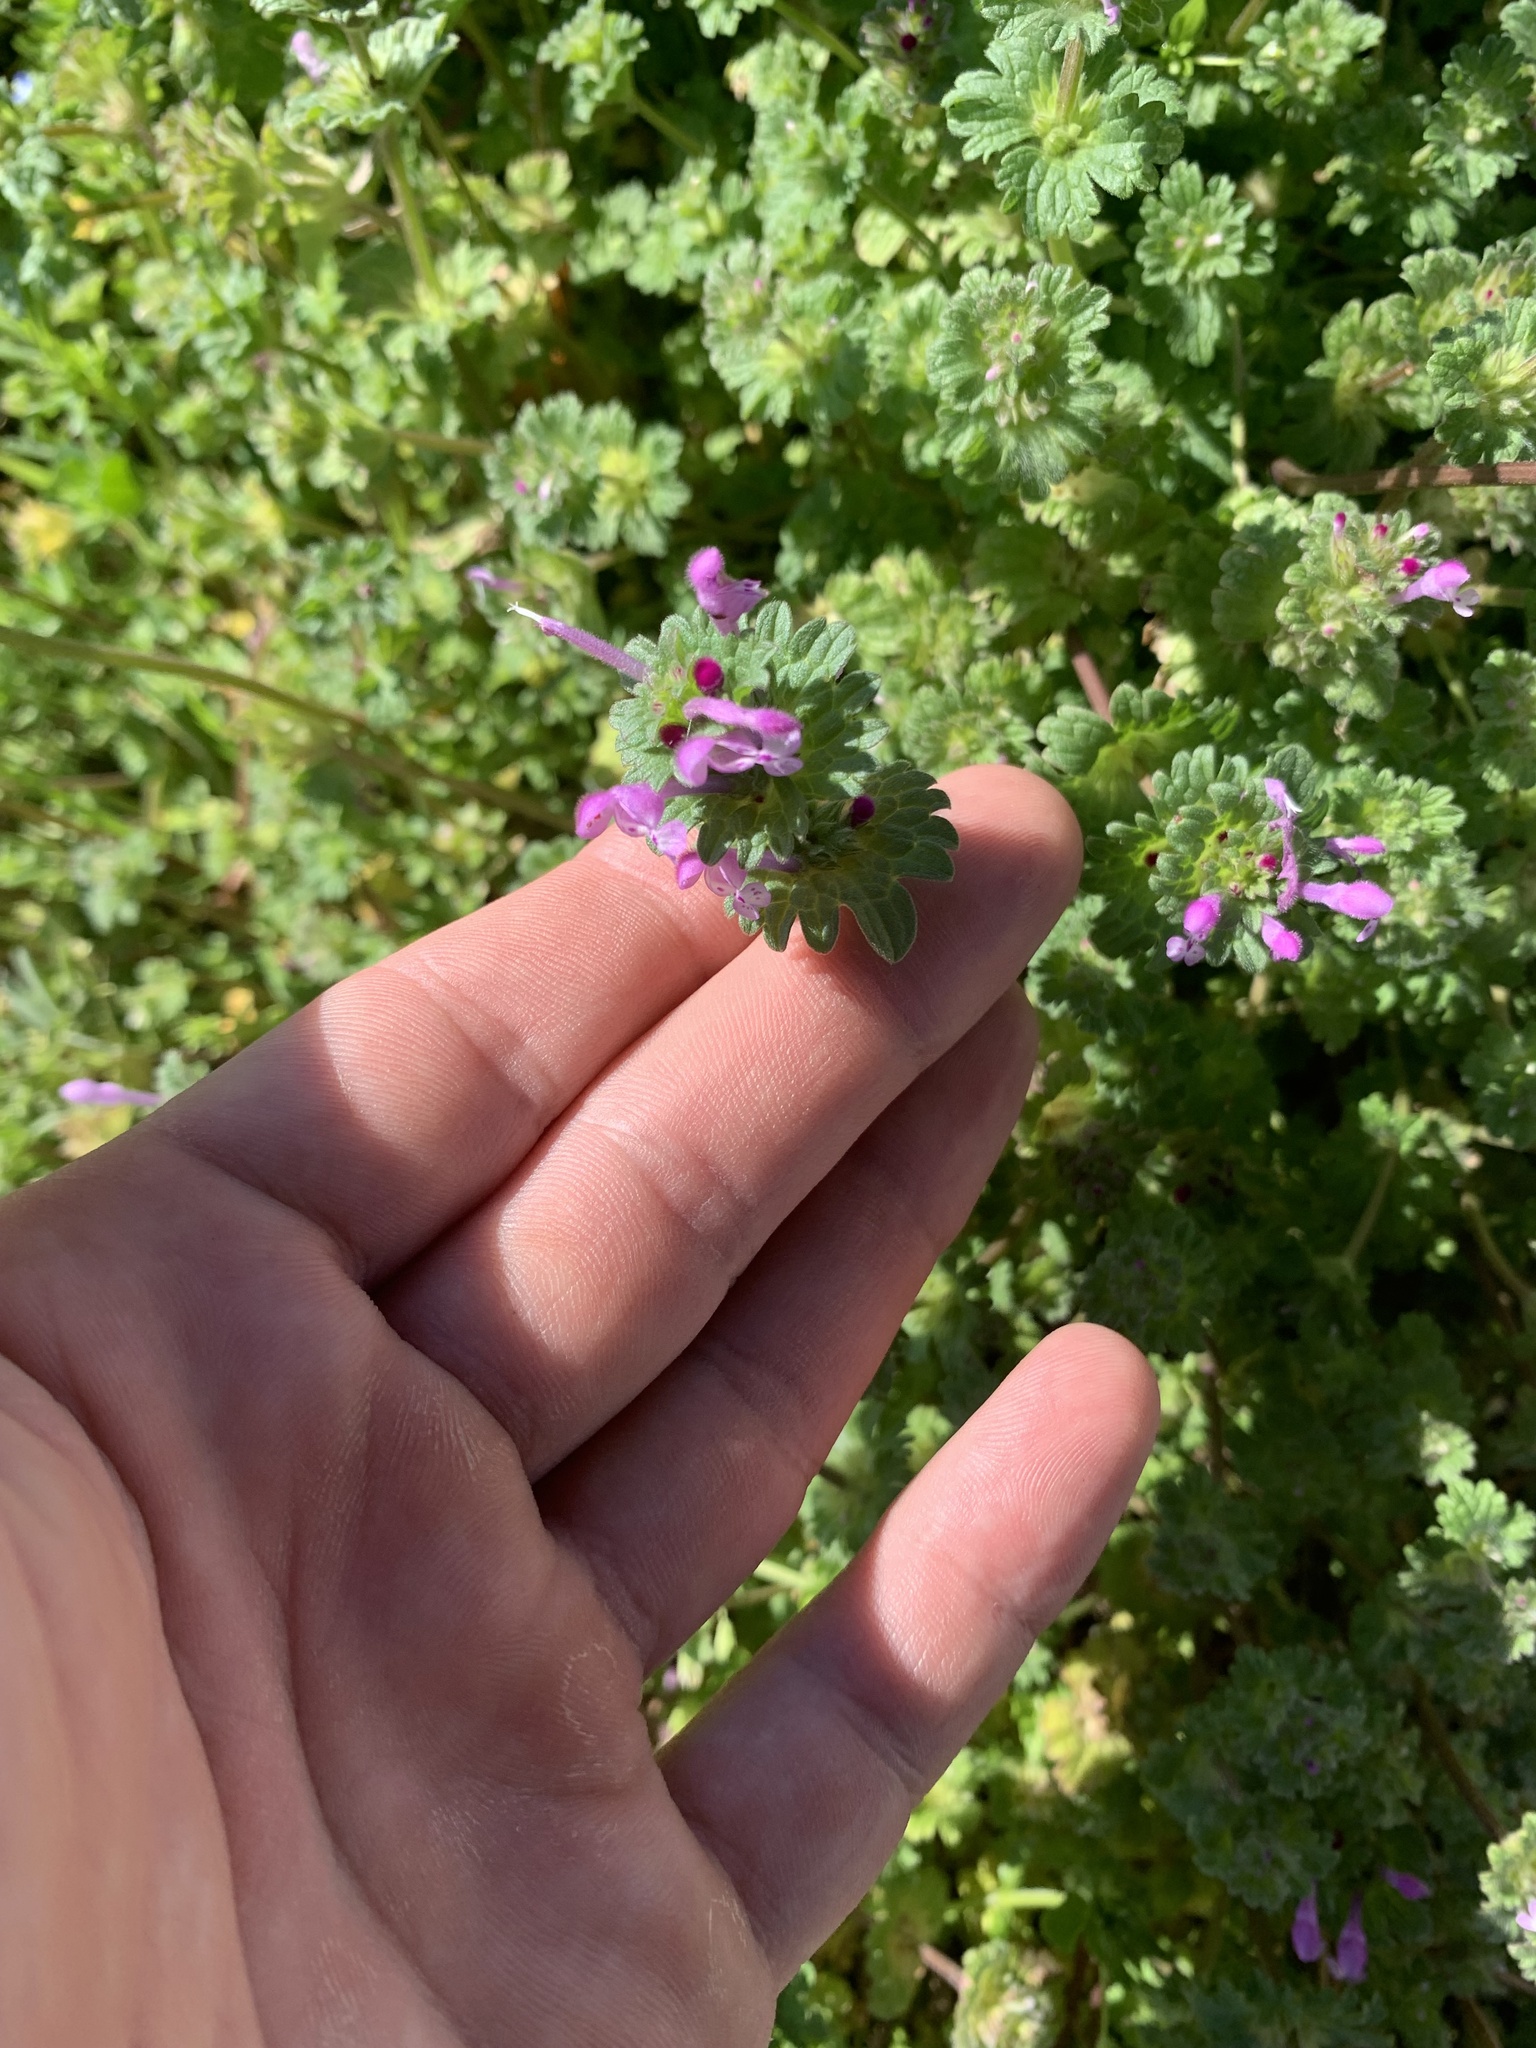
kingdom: Plantae
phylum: Tracheophyta
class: Magnoliopsida
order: Lamiales
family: Lamiaceae
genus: Lamium
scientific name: Lamium amplexicaule
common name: Henbit dead-nettle
